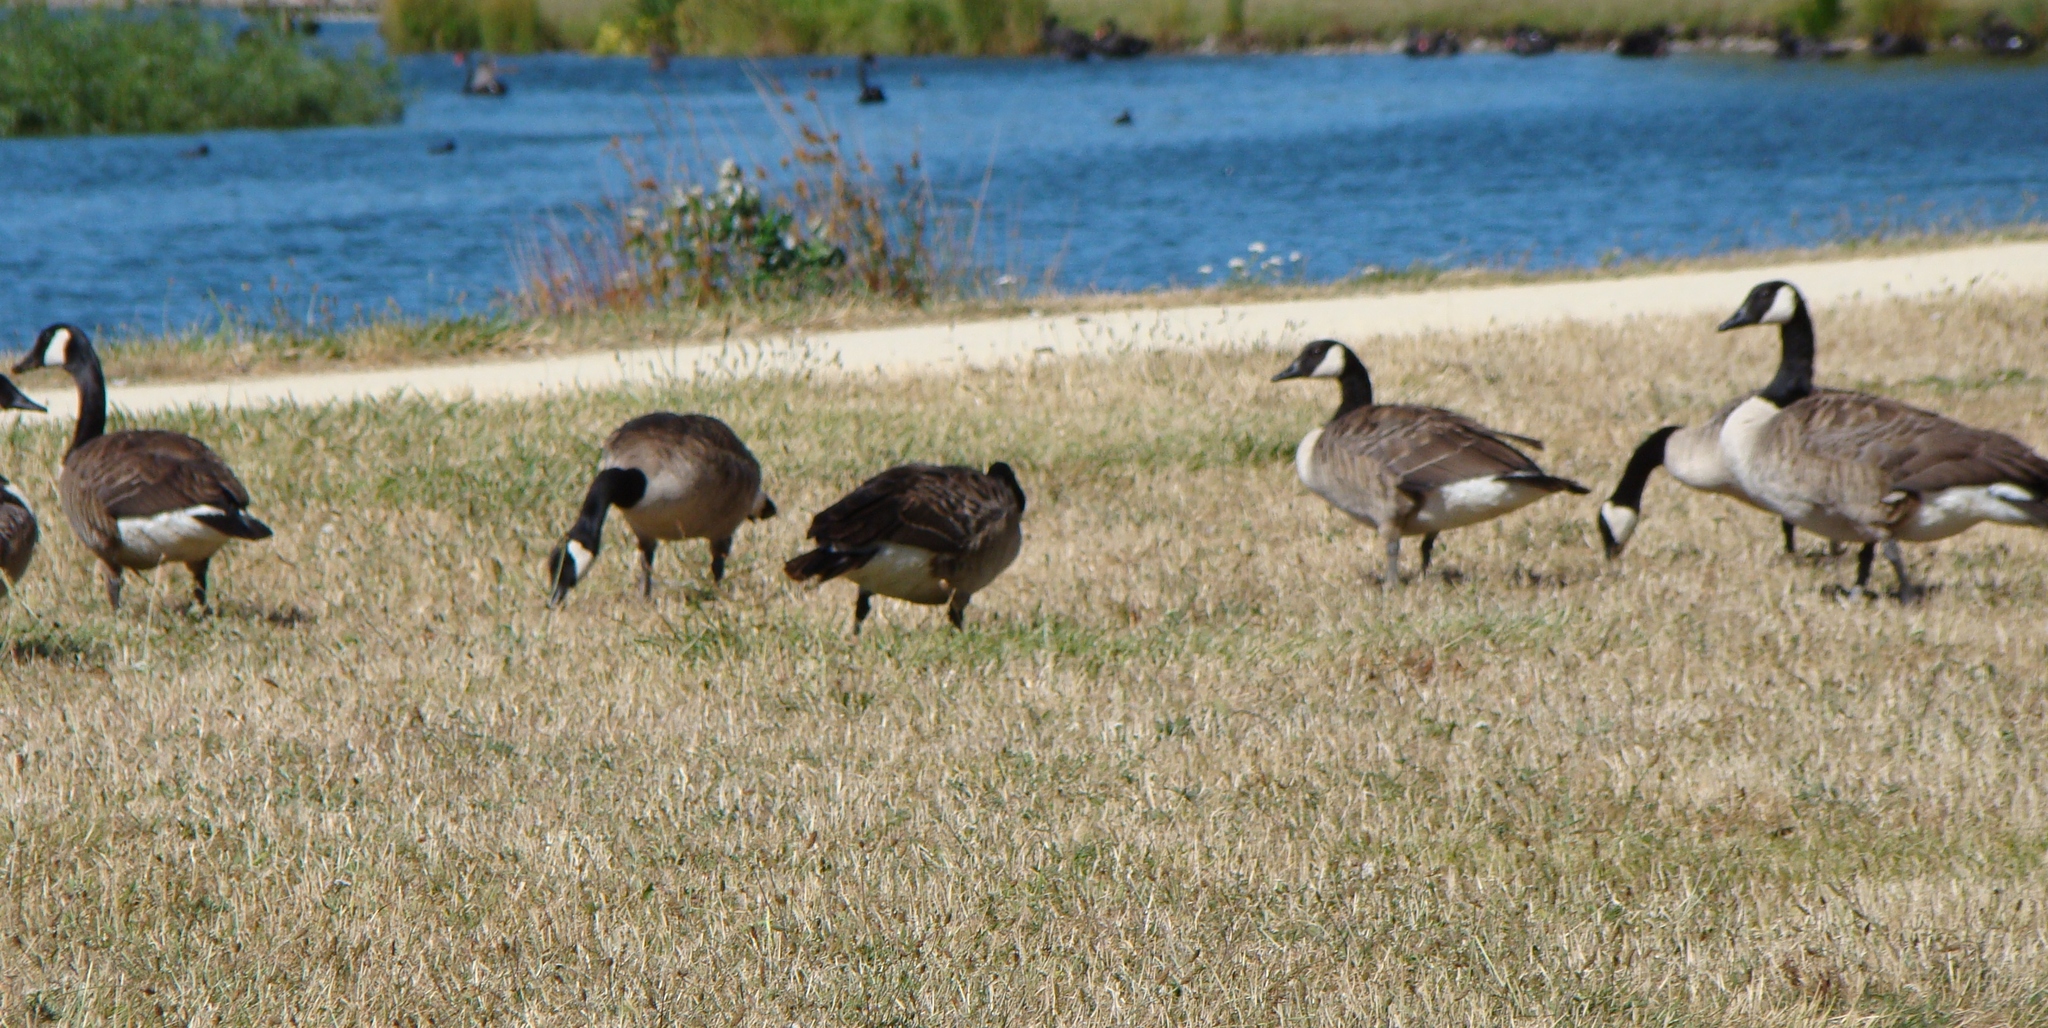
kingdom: Animalia
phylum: Chordata
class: Aves
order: Anseriformes
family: Anatidae
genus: Branta
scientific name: Branta canadensis
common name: Canada goose
